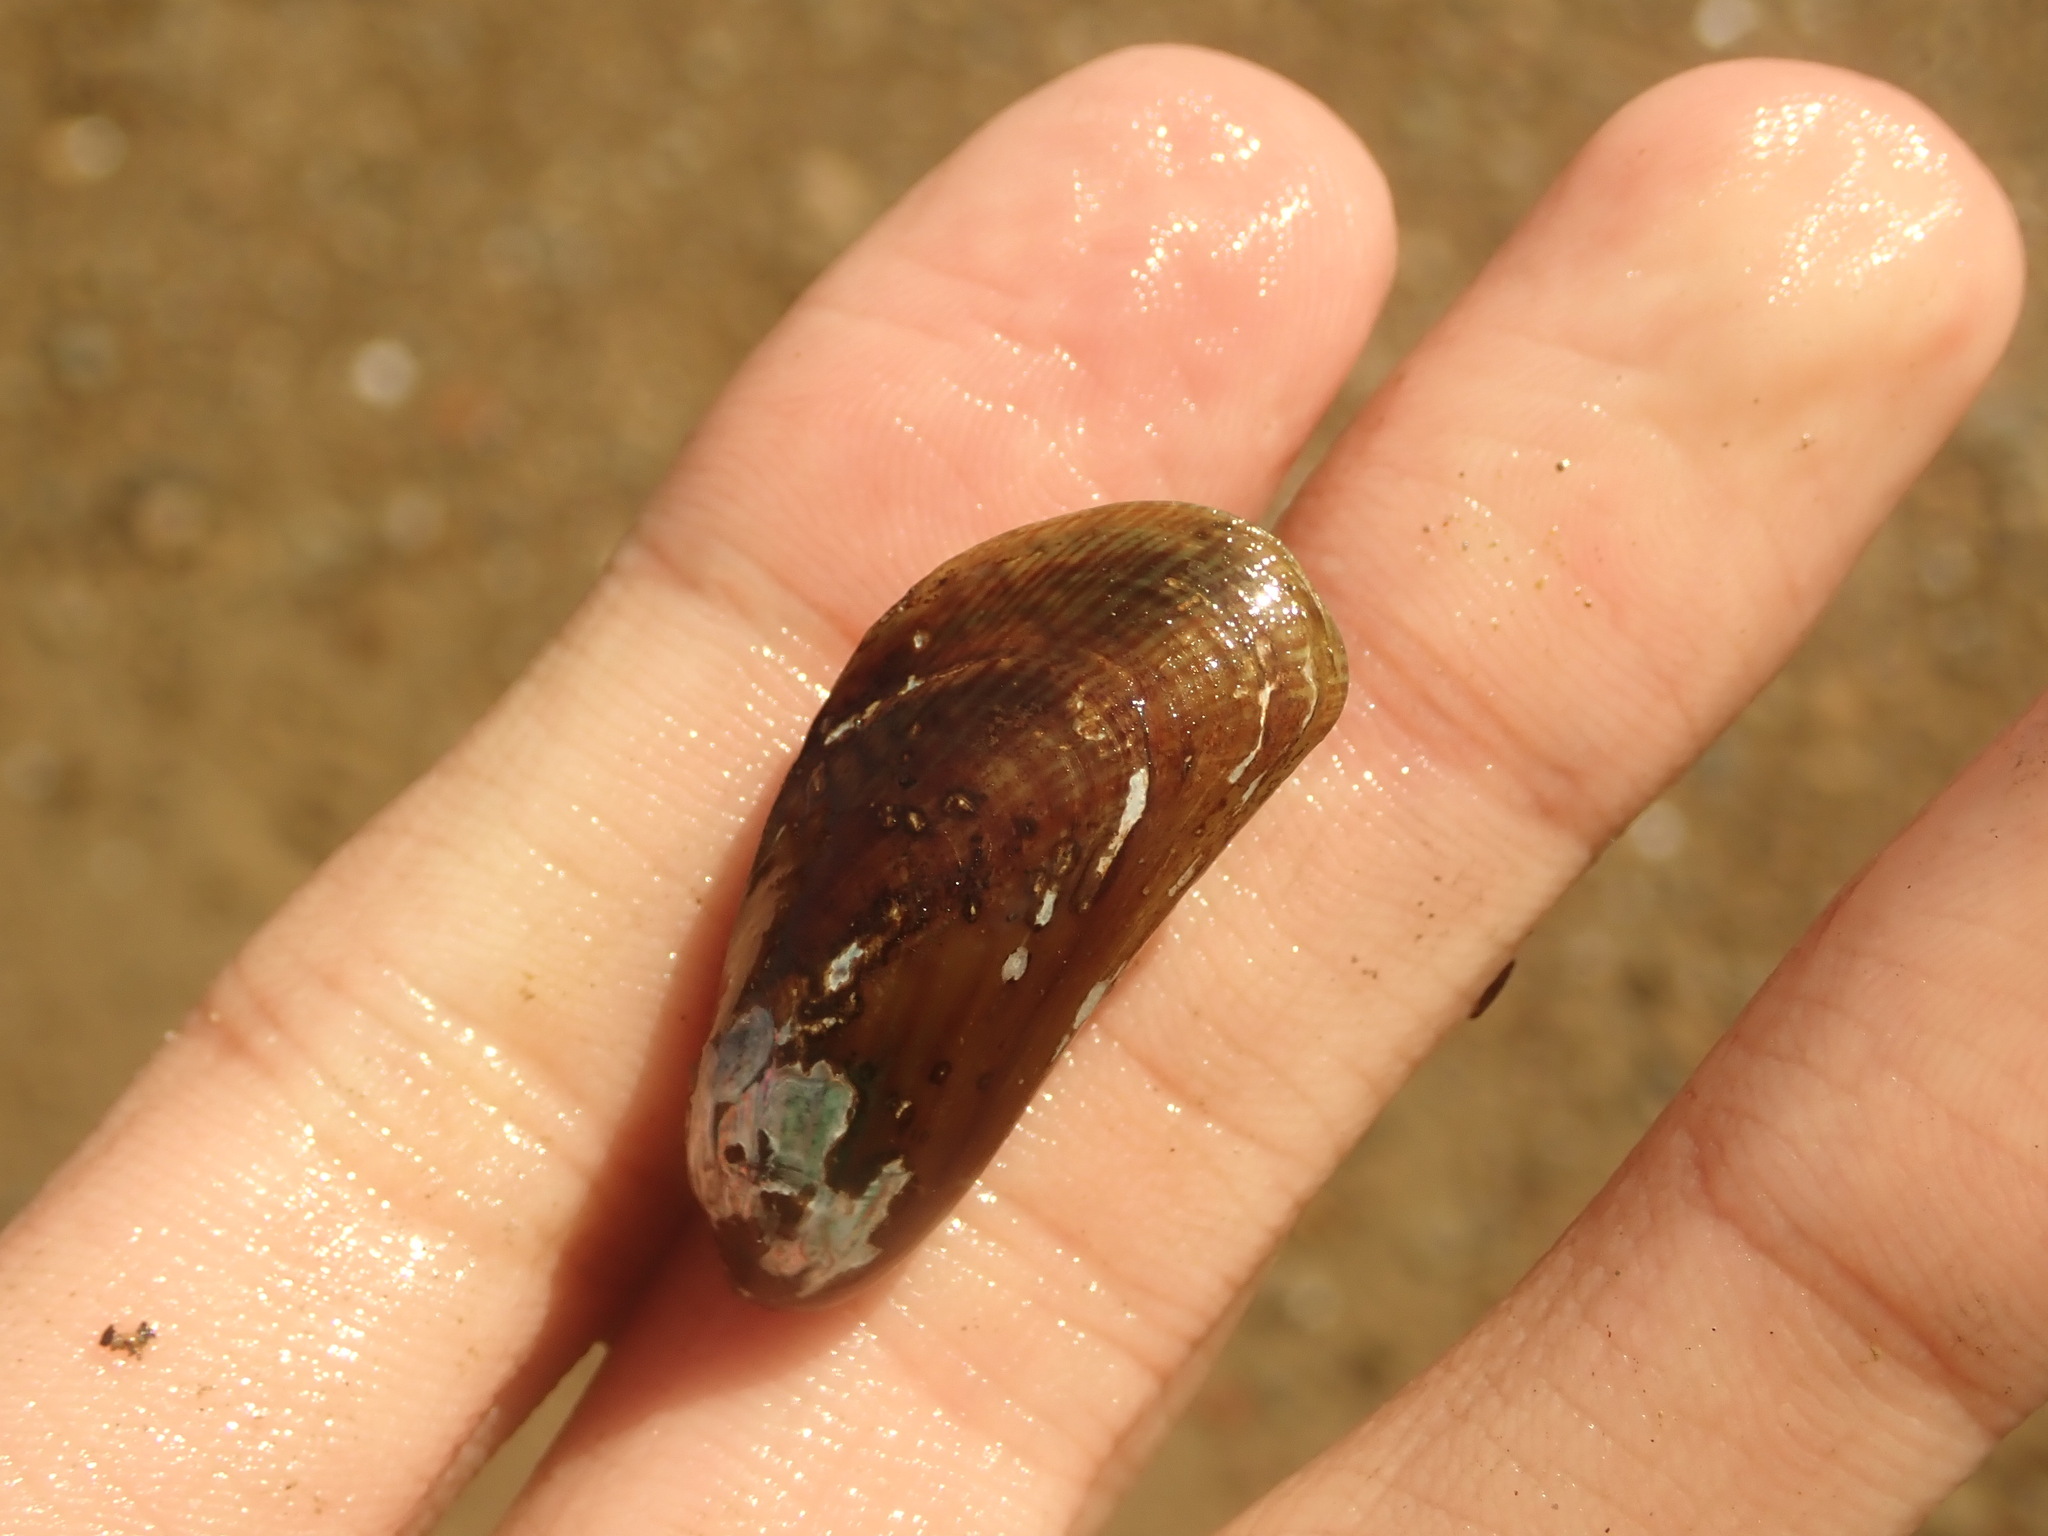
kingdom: Animalia
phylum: Mollusca
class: Bivalvia
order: Mytilida
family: Mytilidae
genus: Arcuatula
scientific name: Arcuatula senhousia
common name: Asian mussel
